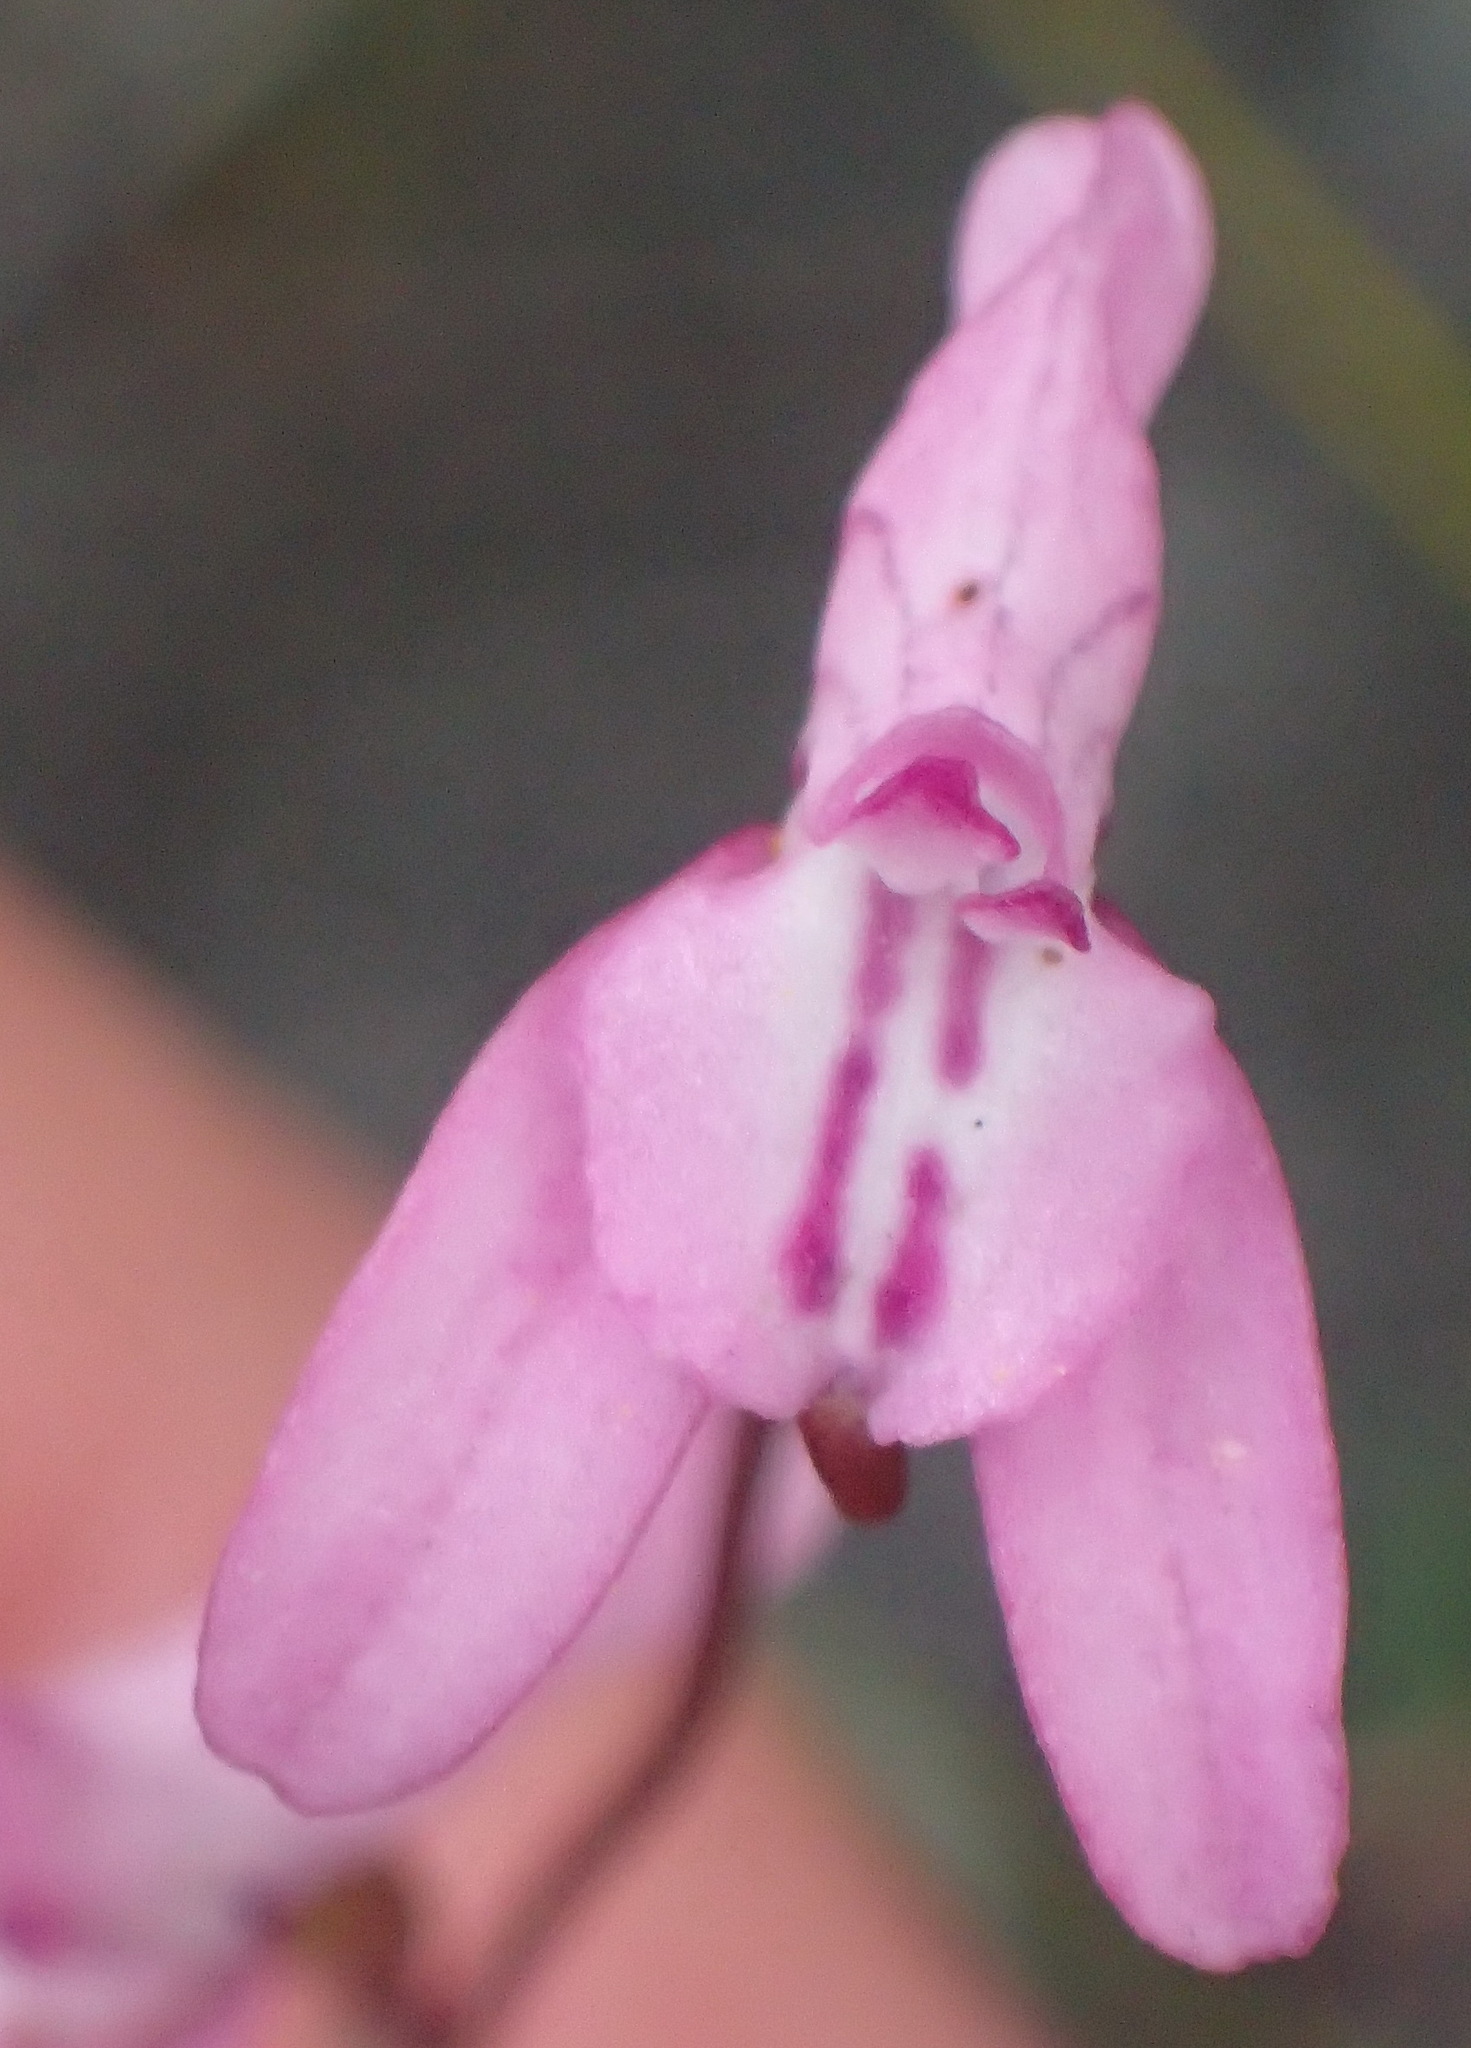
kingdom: Plantae
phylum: Tracheophyta
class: Liliopsida
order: Asparagales
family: Orchidaceae
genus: Disa
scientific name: Disa inflexa
